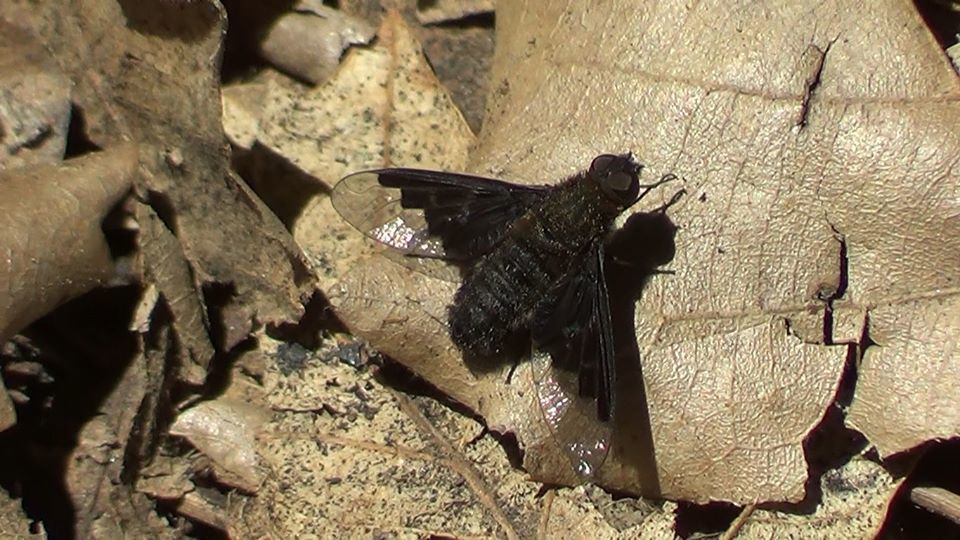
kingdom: Animalia
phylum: Arthropoda
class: Insecta
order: Diptera
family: Bombyliidae
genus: Hemipenthes
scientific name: Hemipenthes morio
